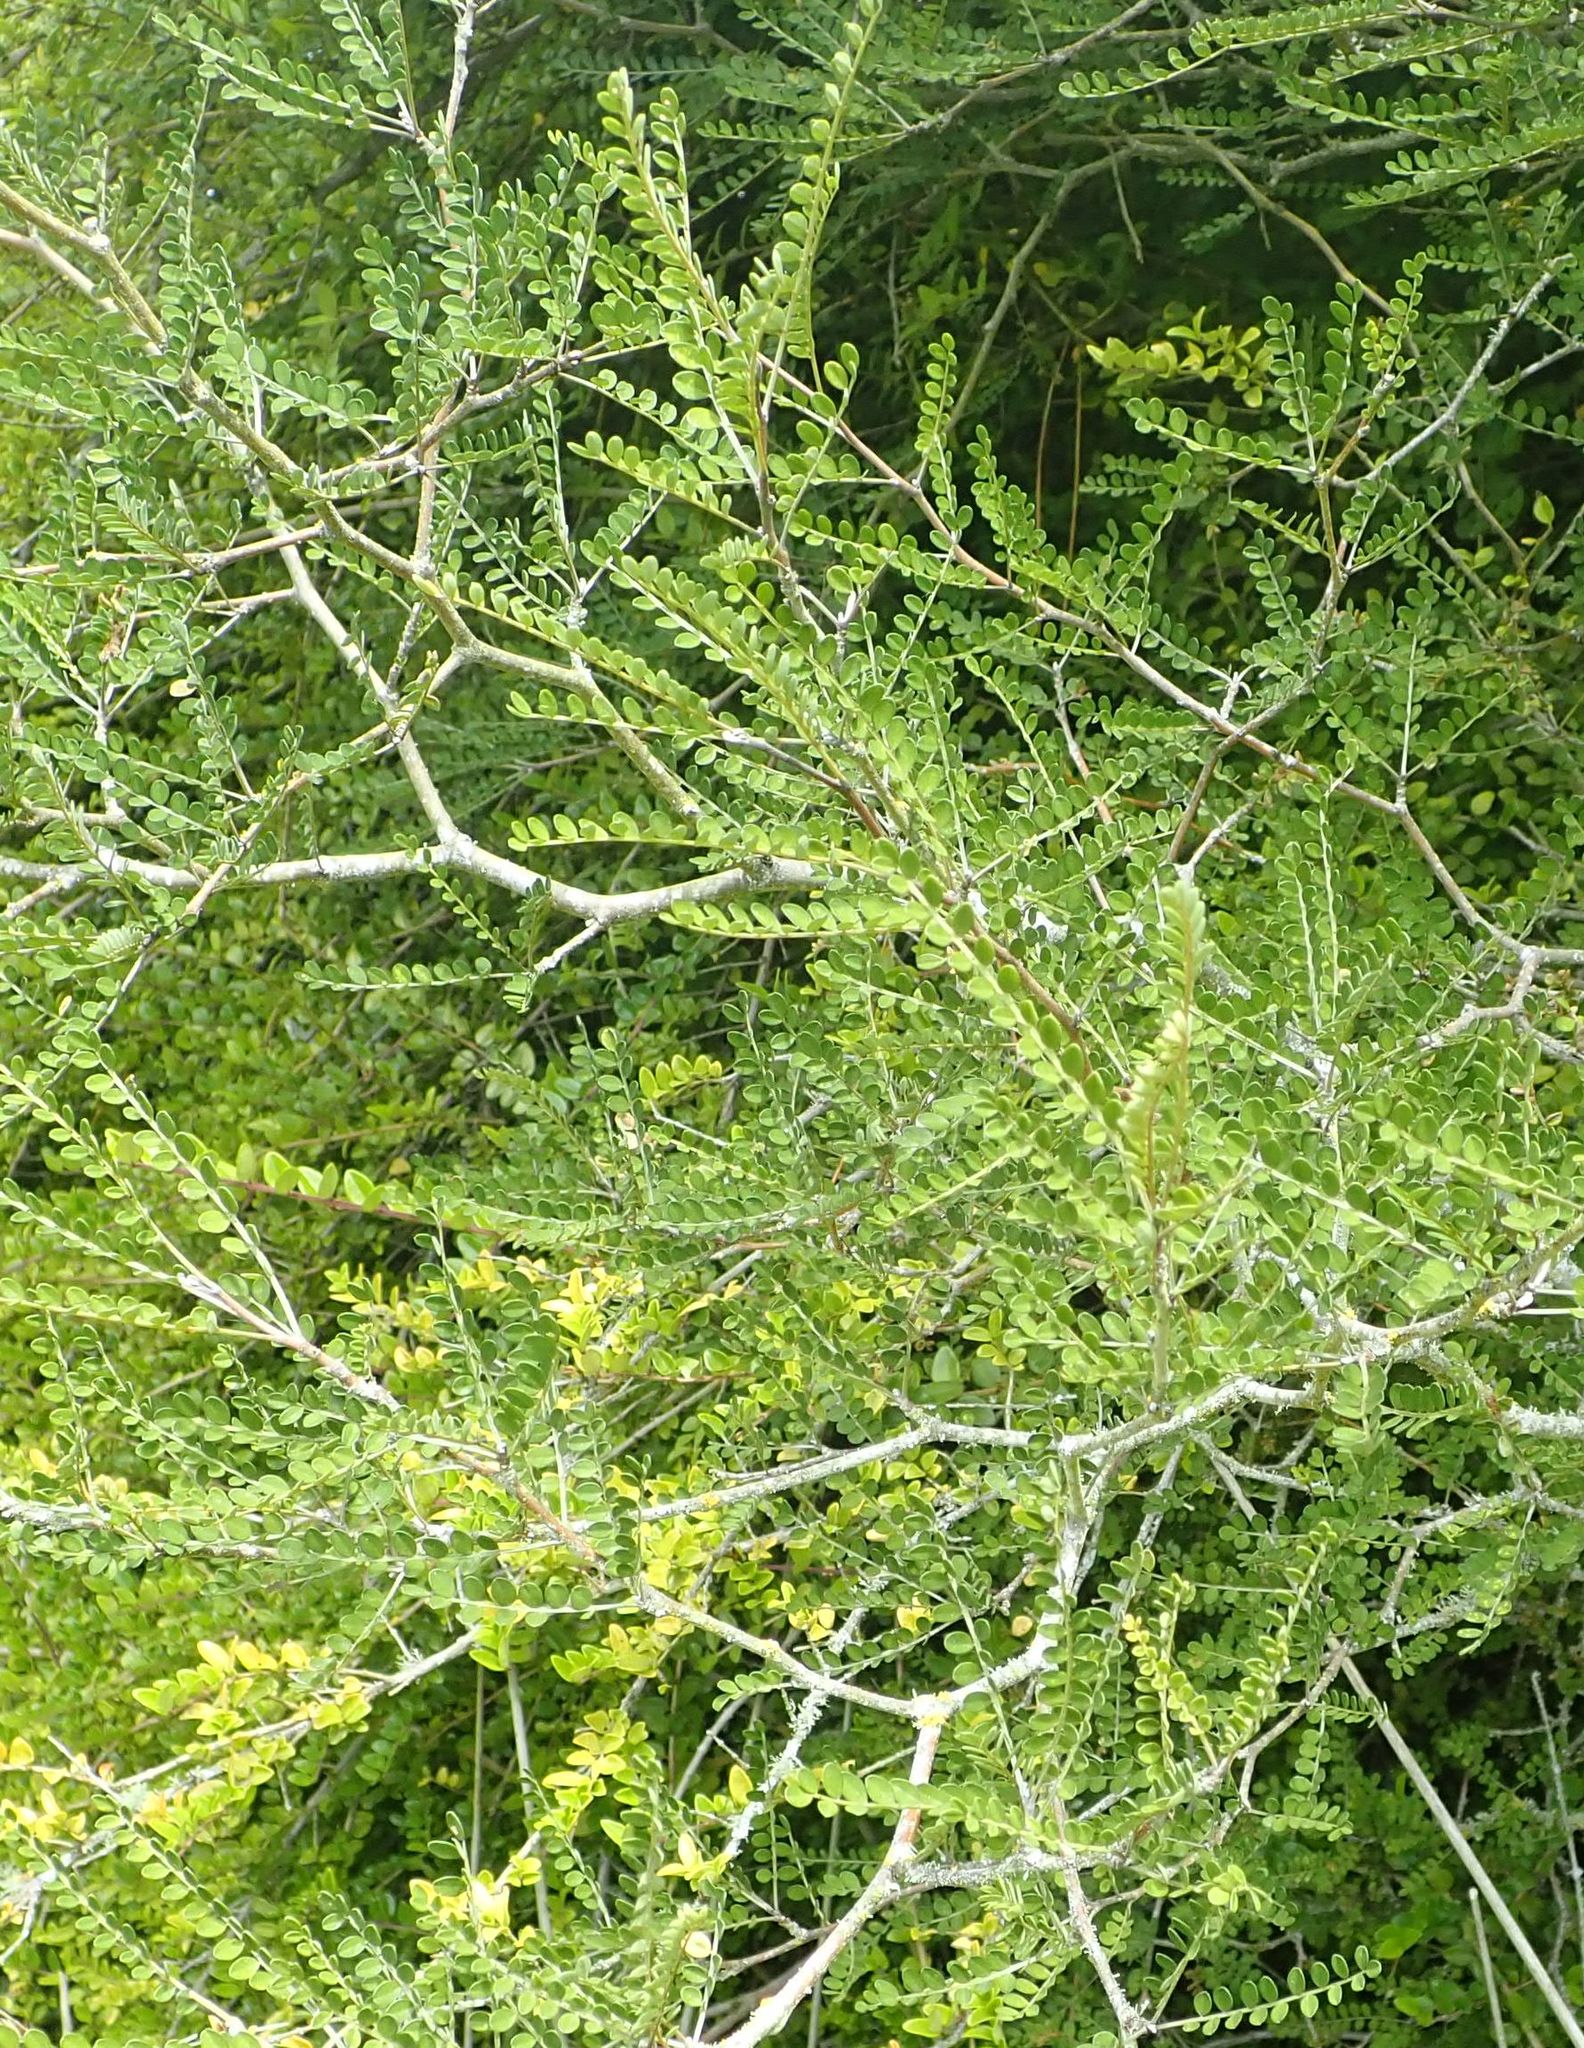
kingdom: Plantae
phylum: Tracheophyta
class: Magnoliopsida
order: Fabales
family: Fabaceae
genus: Sophora
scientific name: Sophora microphylla
